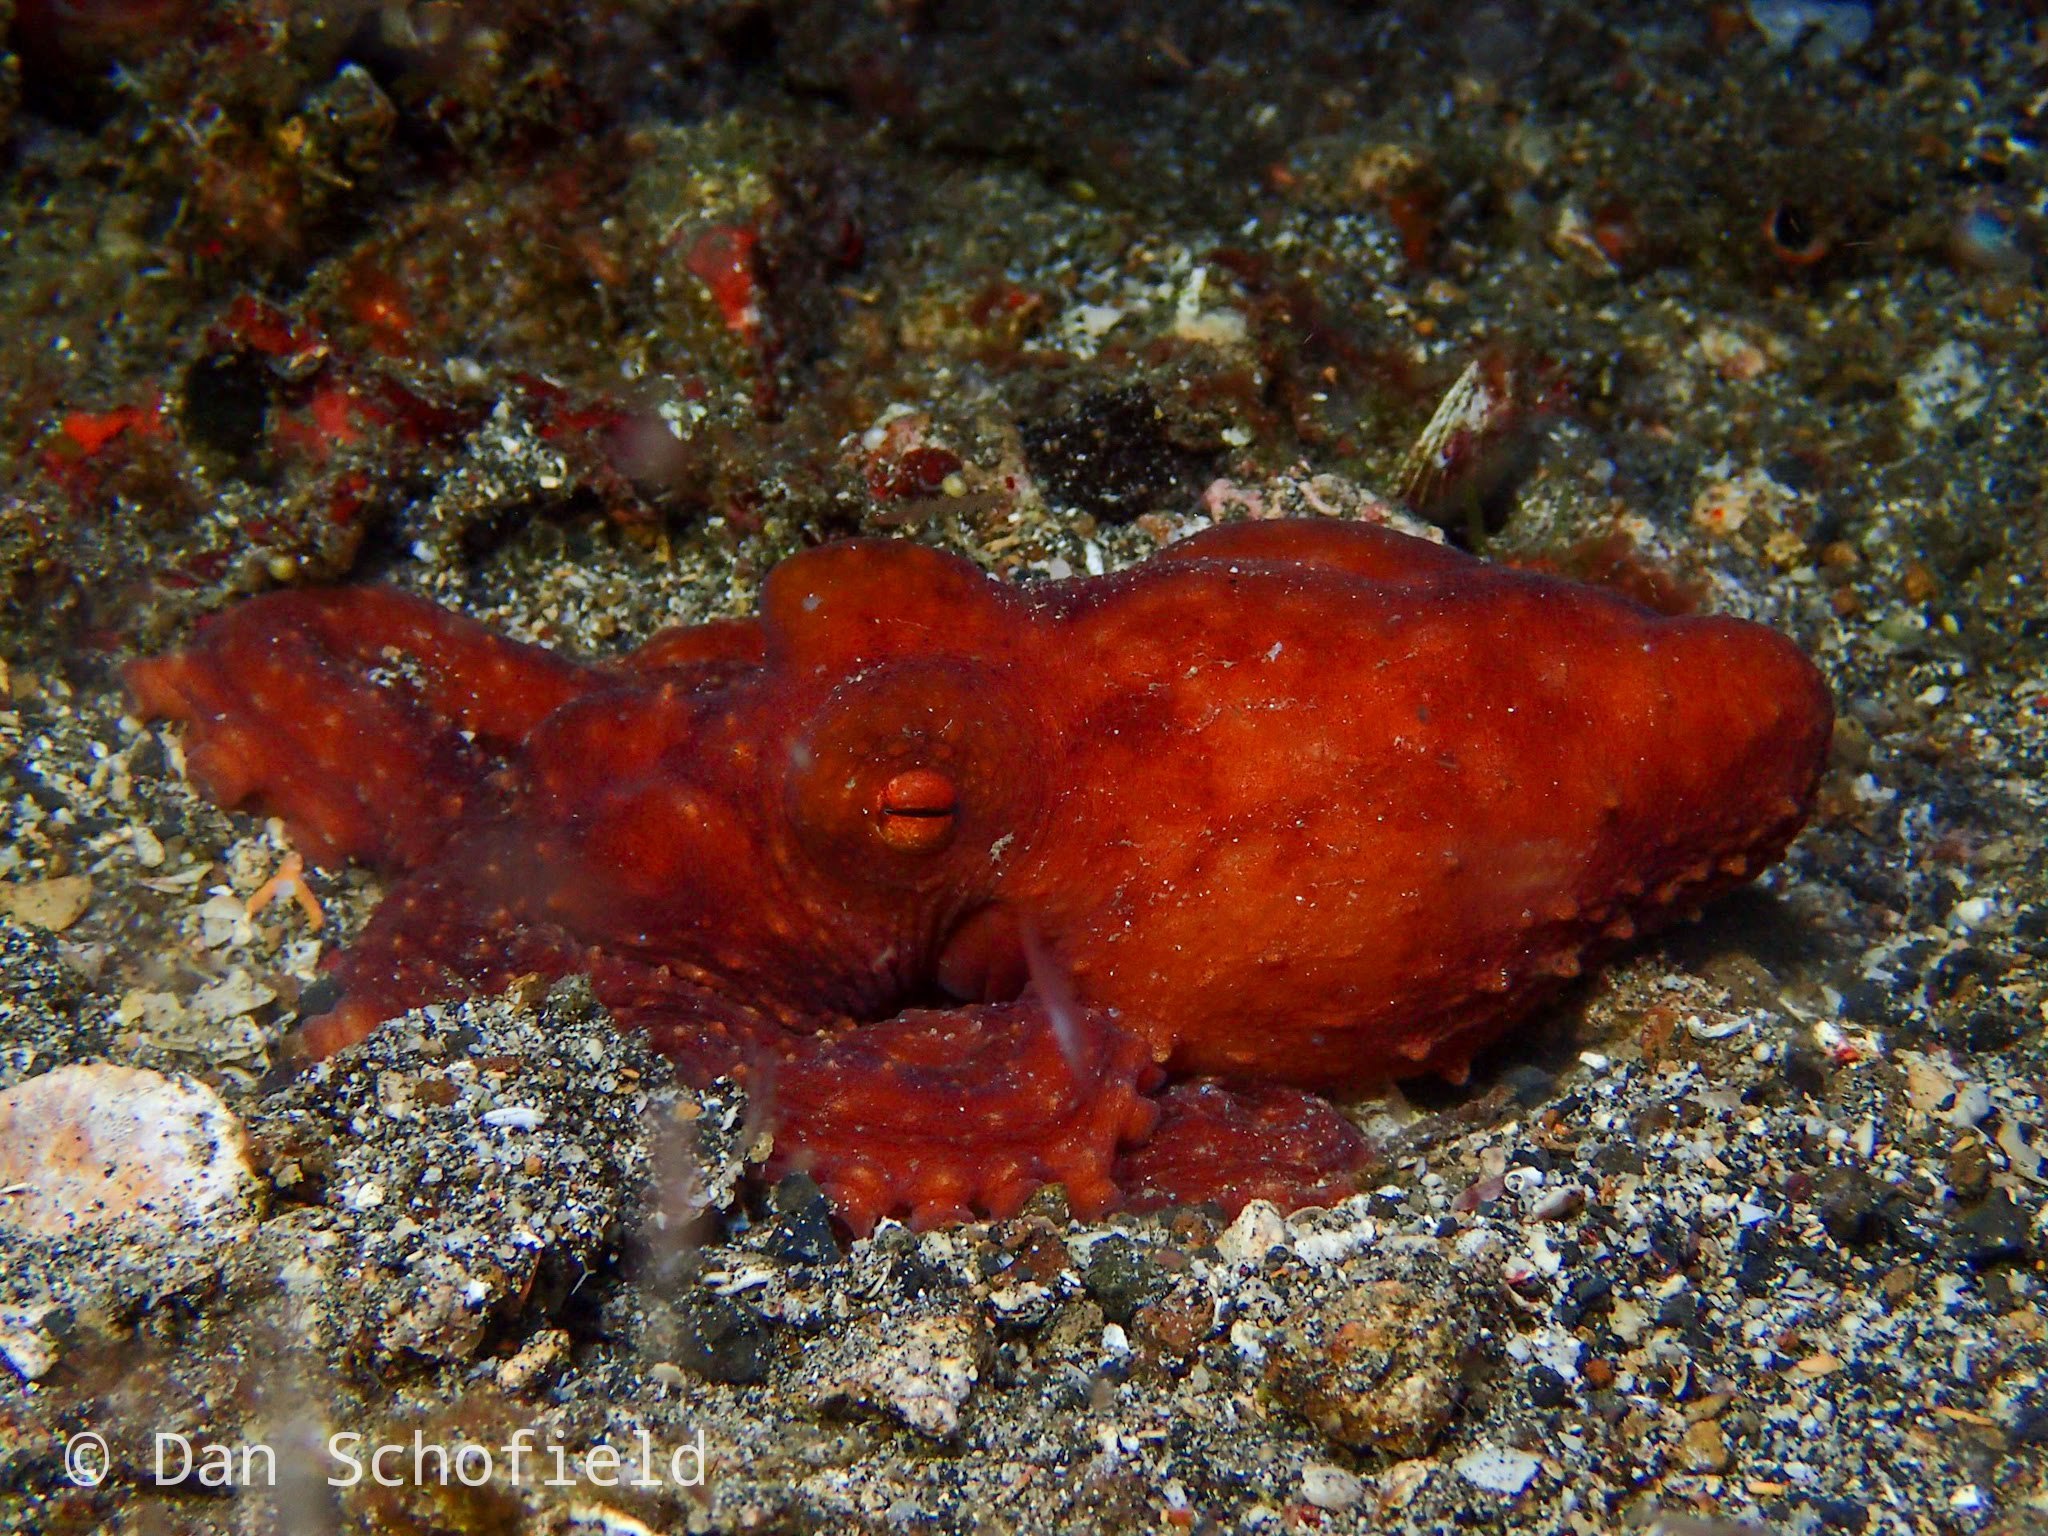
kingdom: Animalia
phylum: Mollusca
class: Cephalopoda
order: Octopoda
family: Octopodidae
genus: Callistoctopus
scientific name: Callistoctopus luteus
